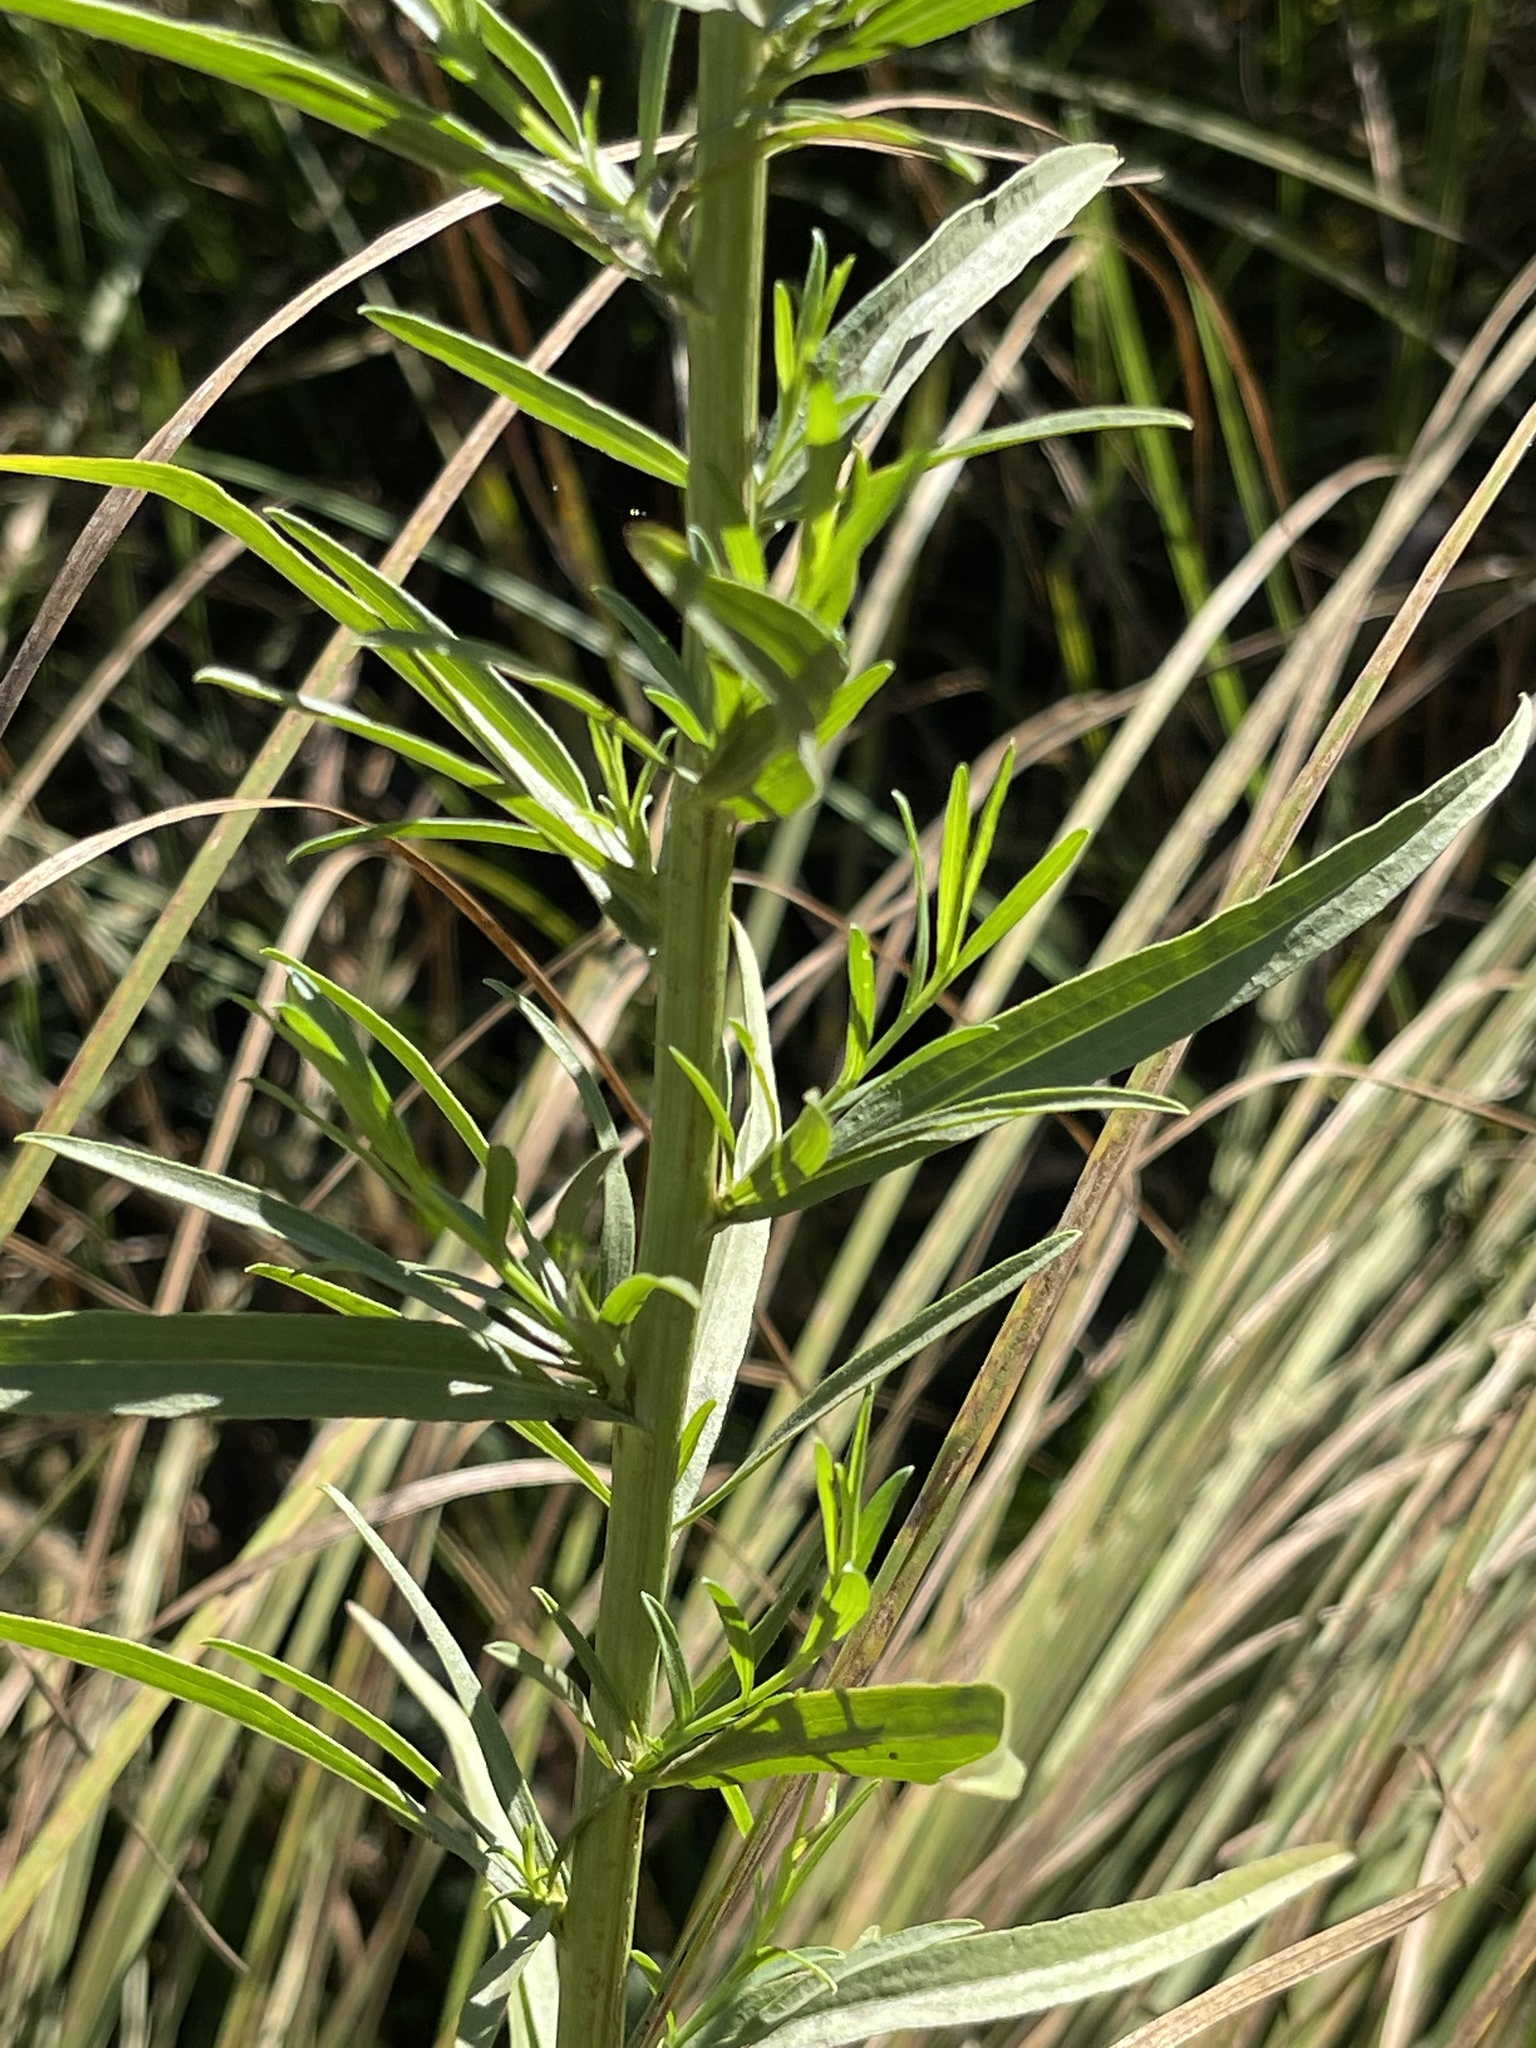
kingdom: Plantae
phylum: Tracheophyta
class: Magnoliopsida
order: Asterales
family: Asteraceae
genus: Euthamia
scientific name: Euthamia occidentalis
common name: Western goldentop
